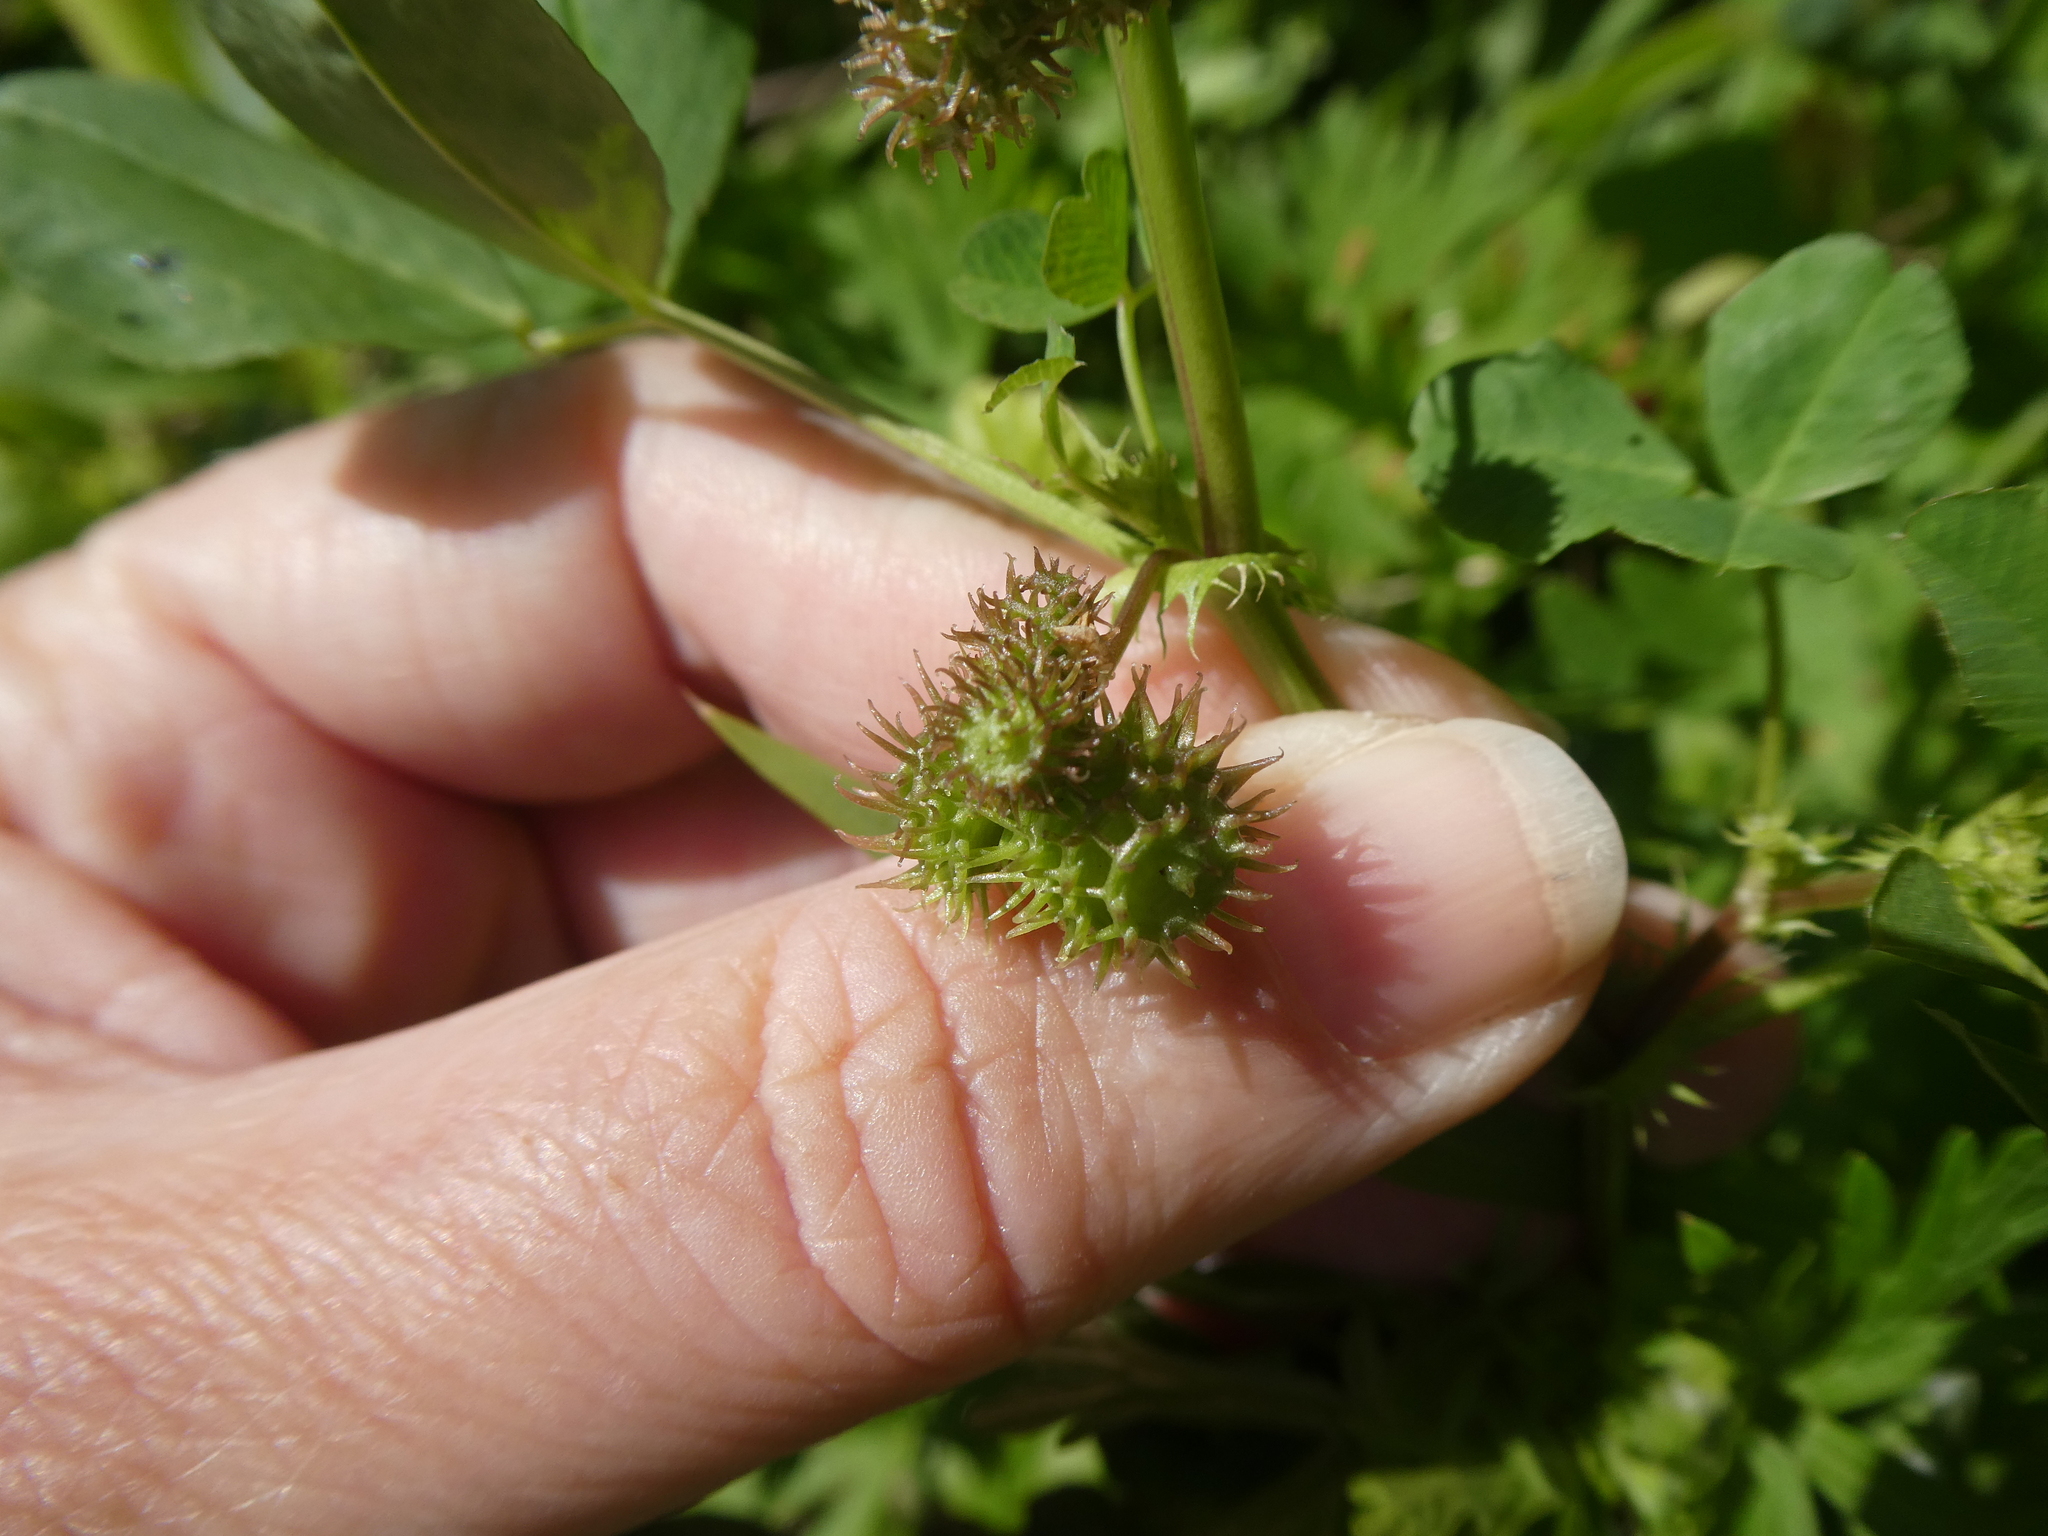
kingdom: Plantae
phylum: Tracheophyta
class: Magnoliopsida
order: Fabales
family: Fabaceae
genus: Medicago
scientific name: Medicago polymorpha
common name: Burclover
